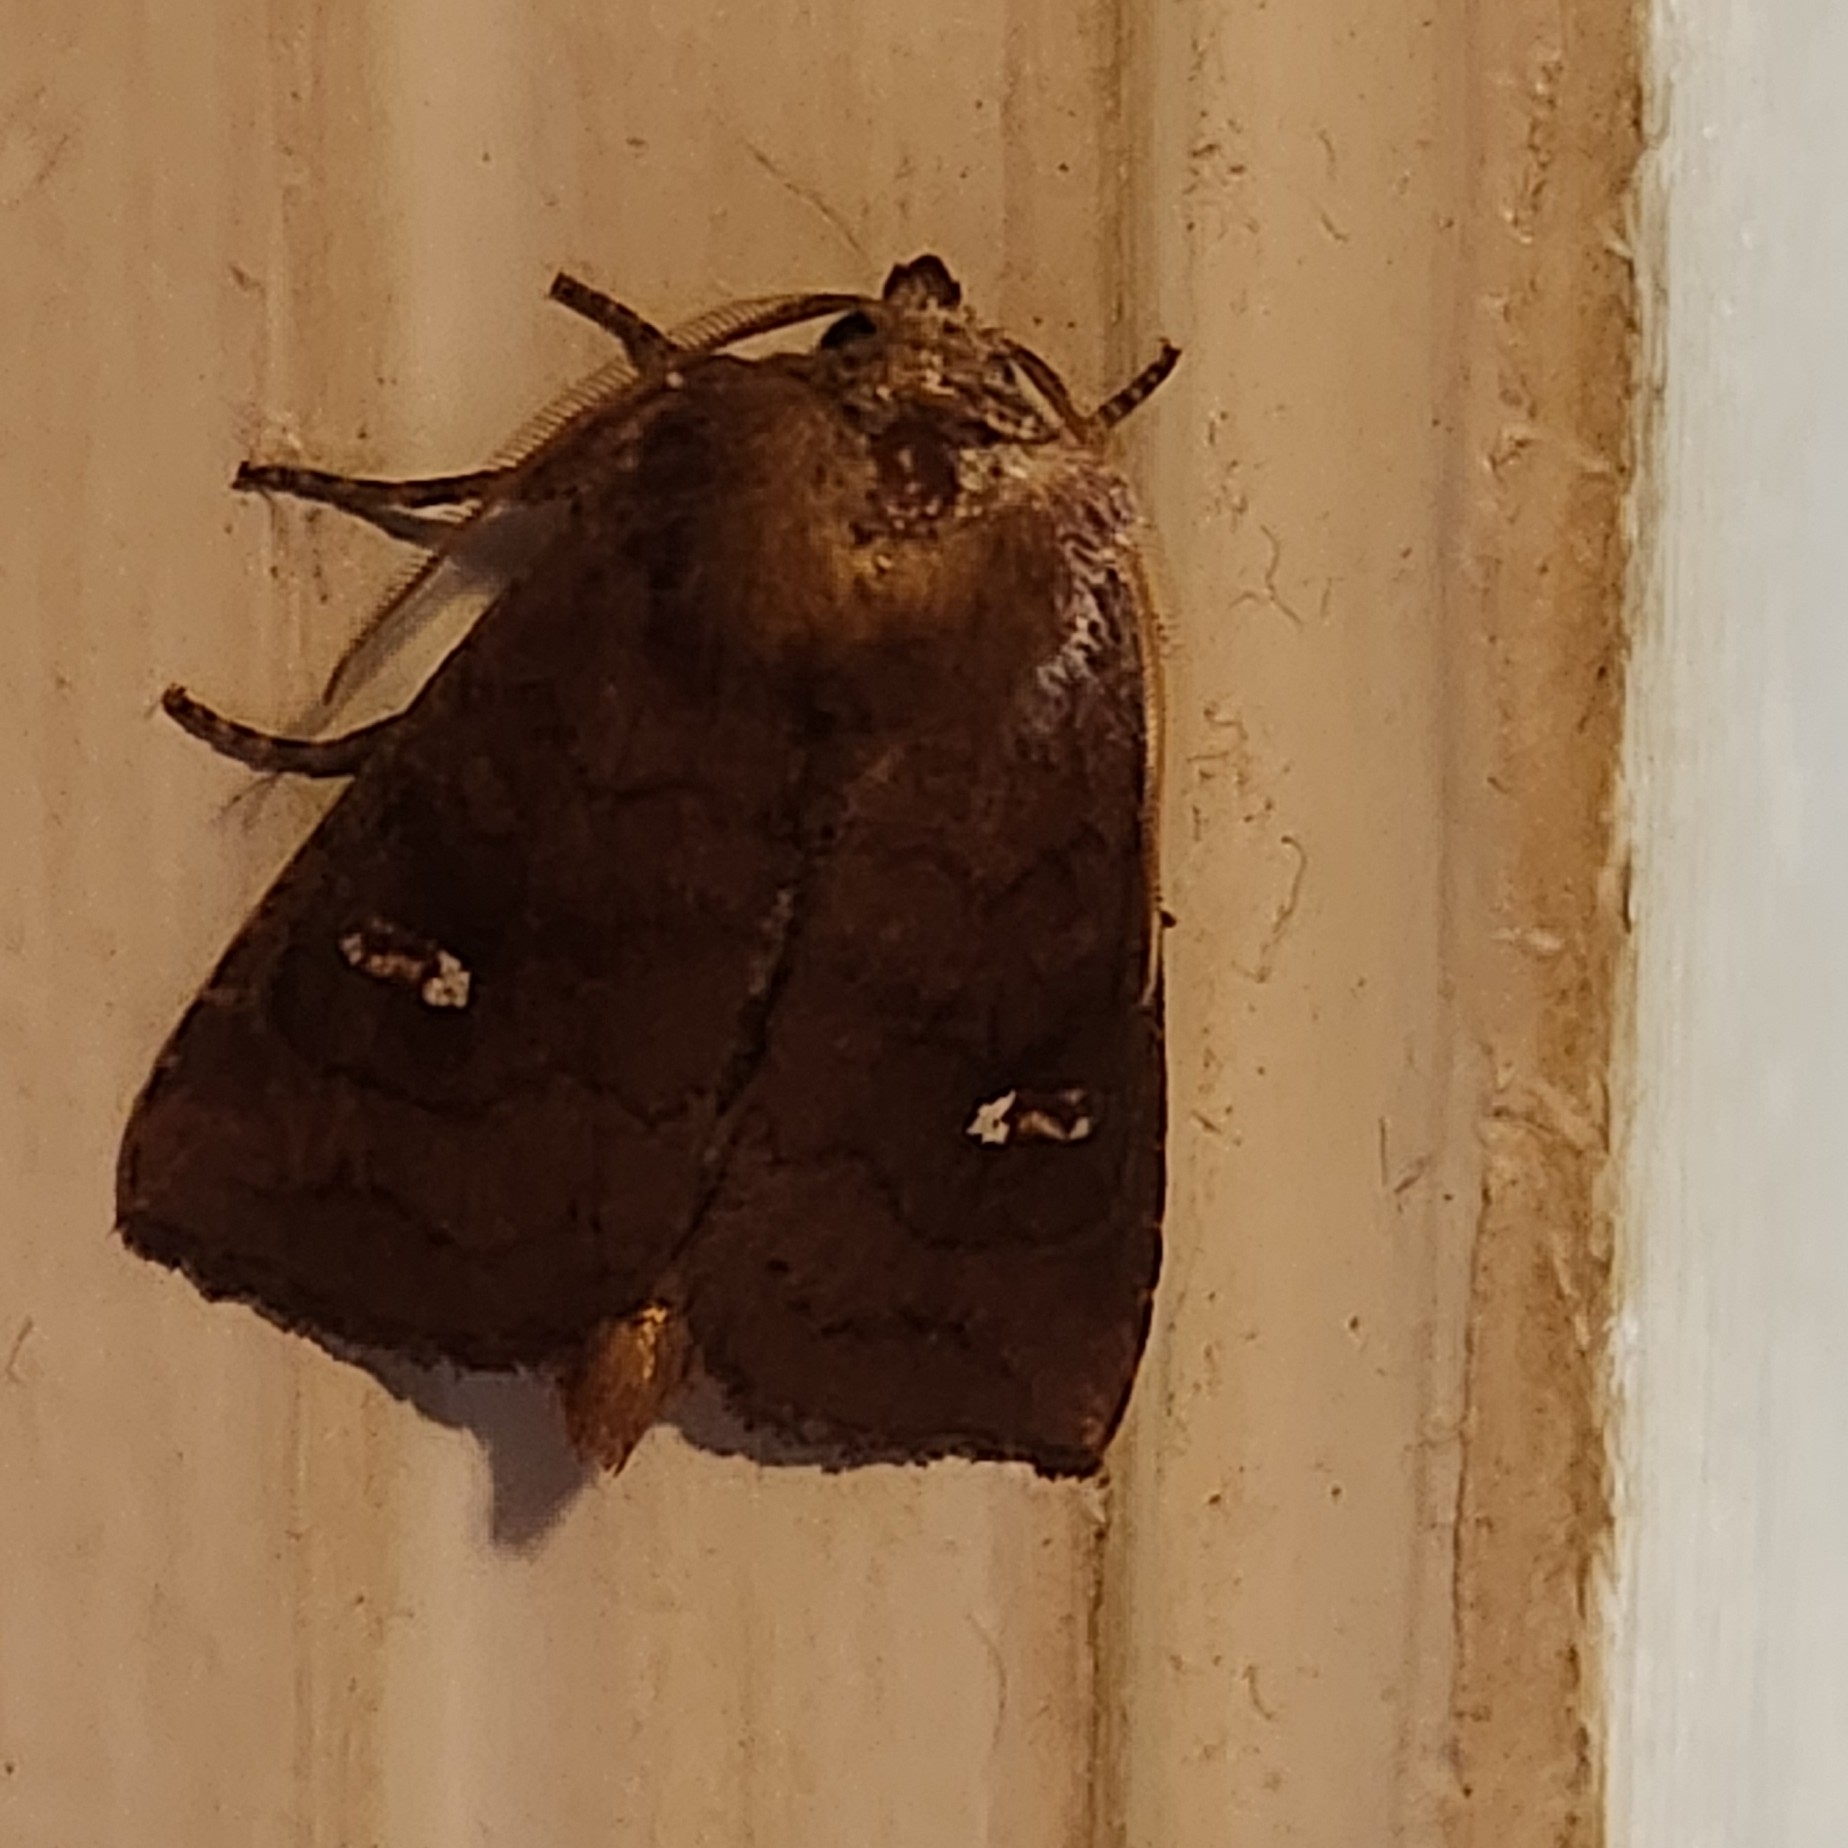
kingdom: Animalia
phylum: Arthropoda
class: Insecta
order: Lepidoptera
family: Noctuidae
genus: Tricholita
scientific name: Tricholita signata
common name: Signate quaker
